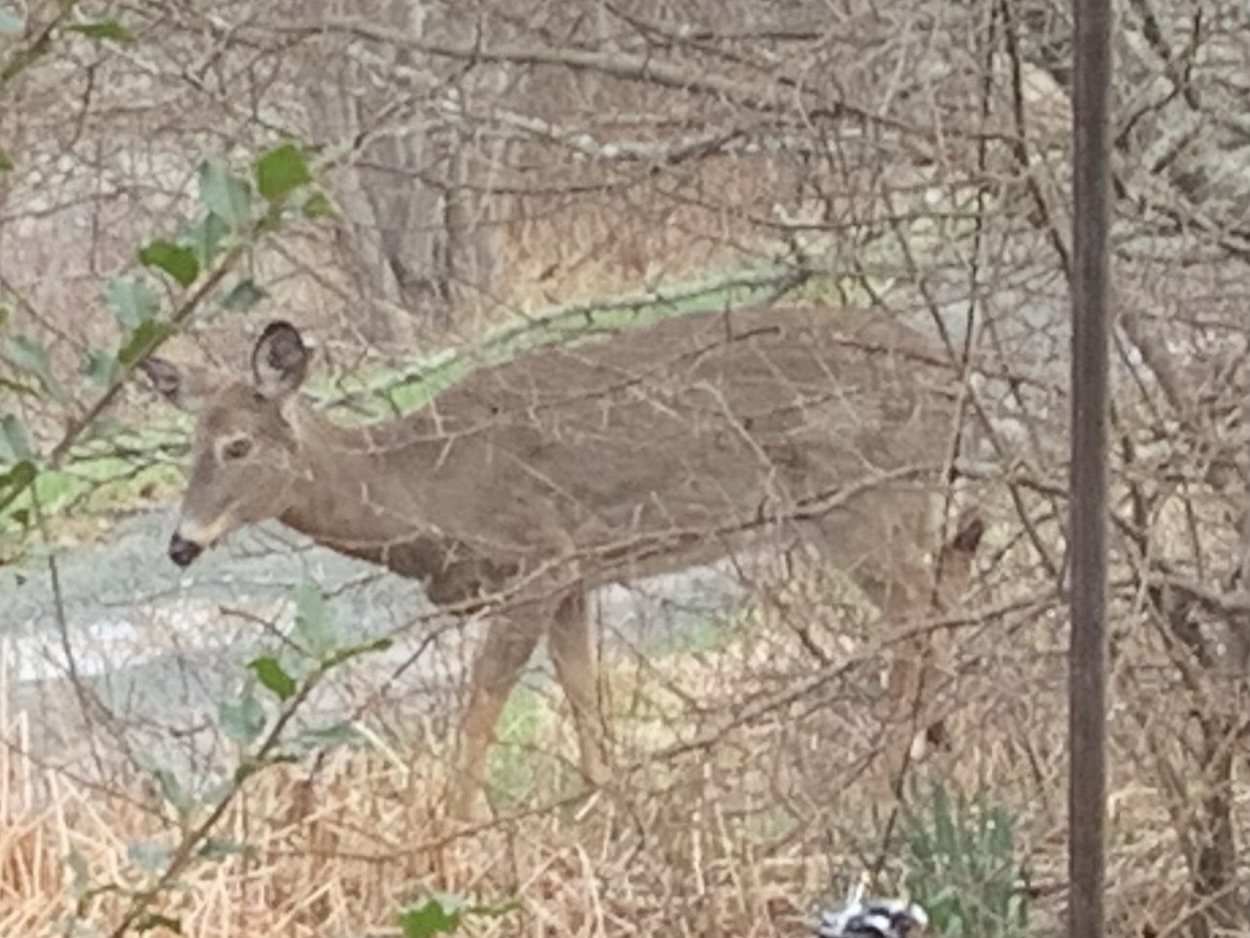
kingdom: Animalia
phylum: Chordata
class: Mammalia
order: Artiodactyla
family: Cervidae
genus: Odocoileus
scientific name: Odocoileus virginianus
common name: White-tailed deer
